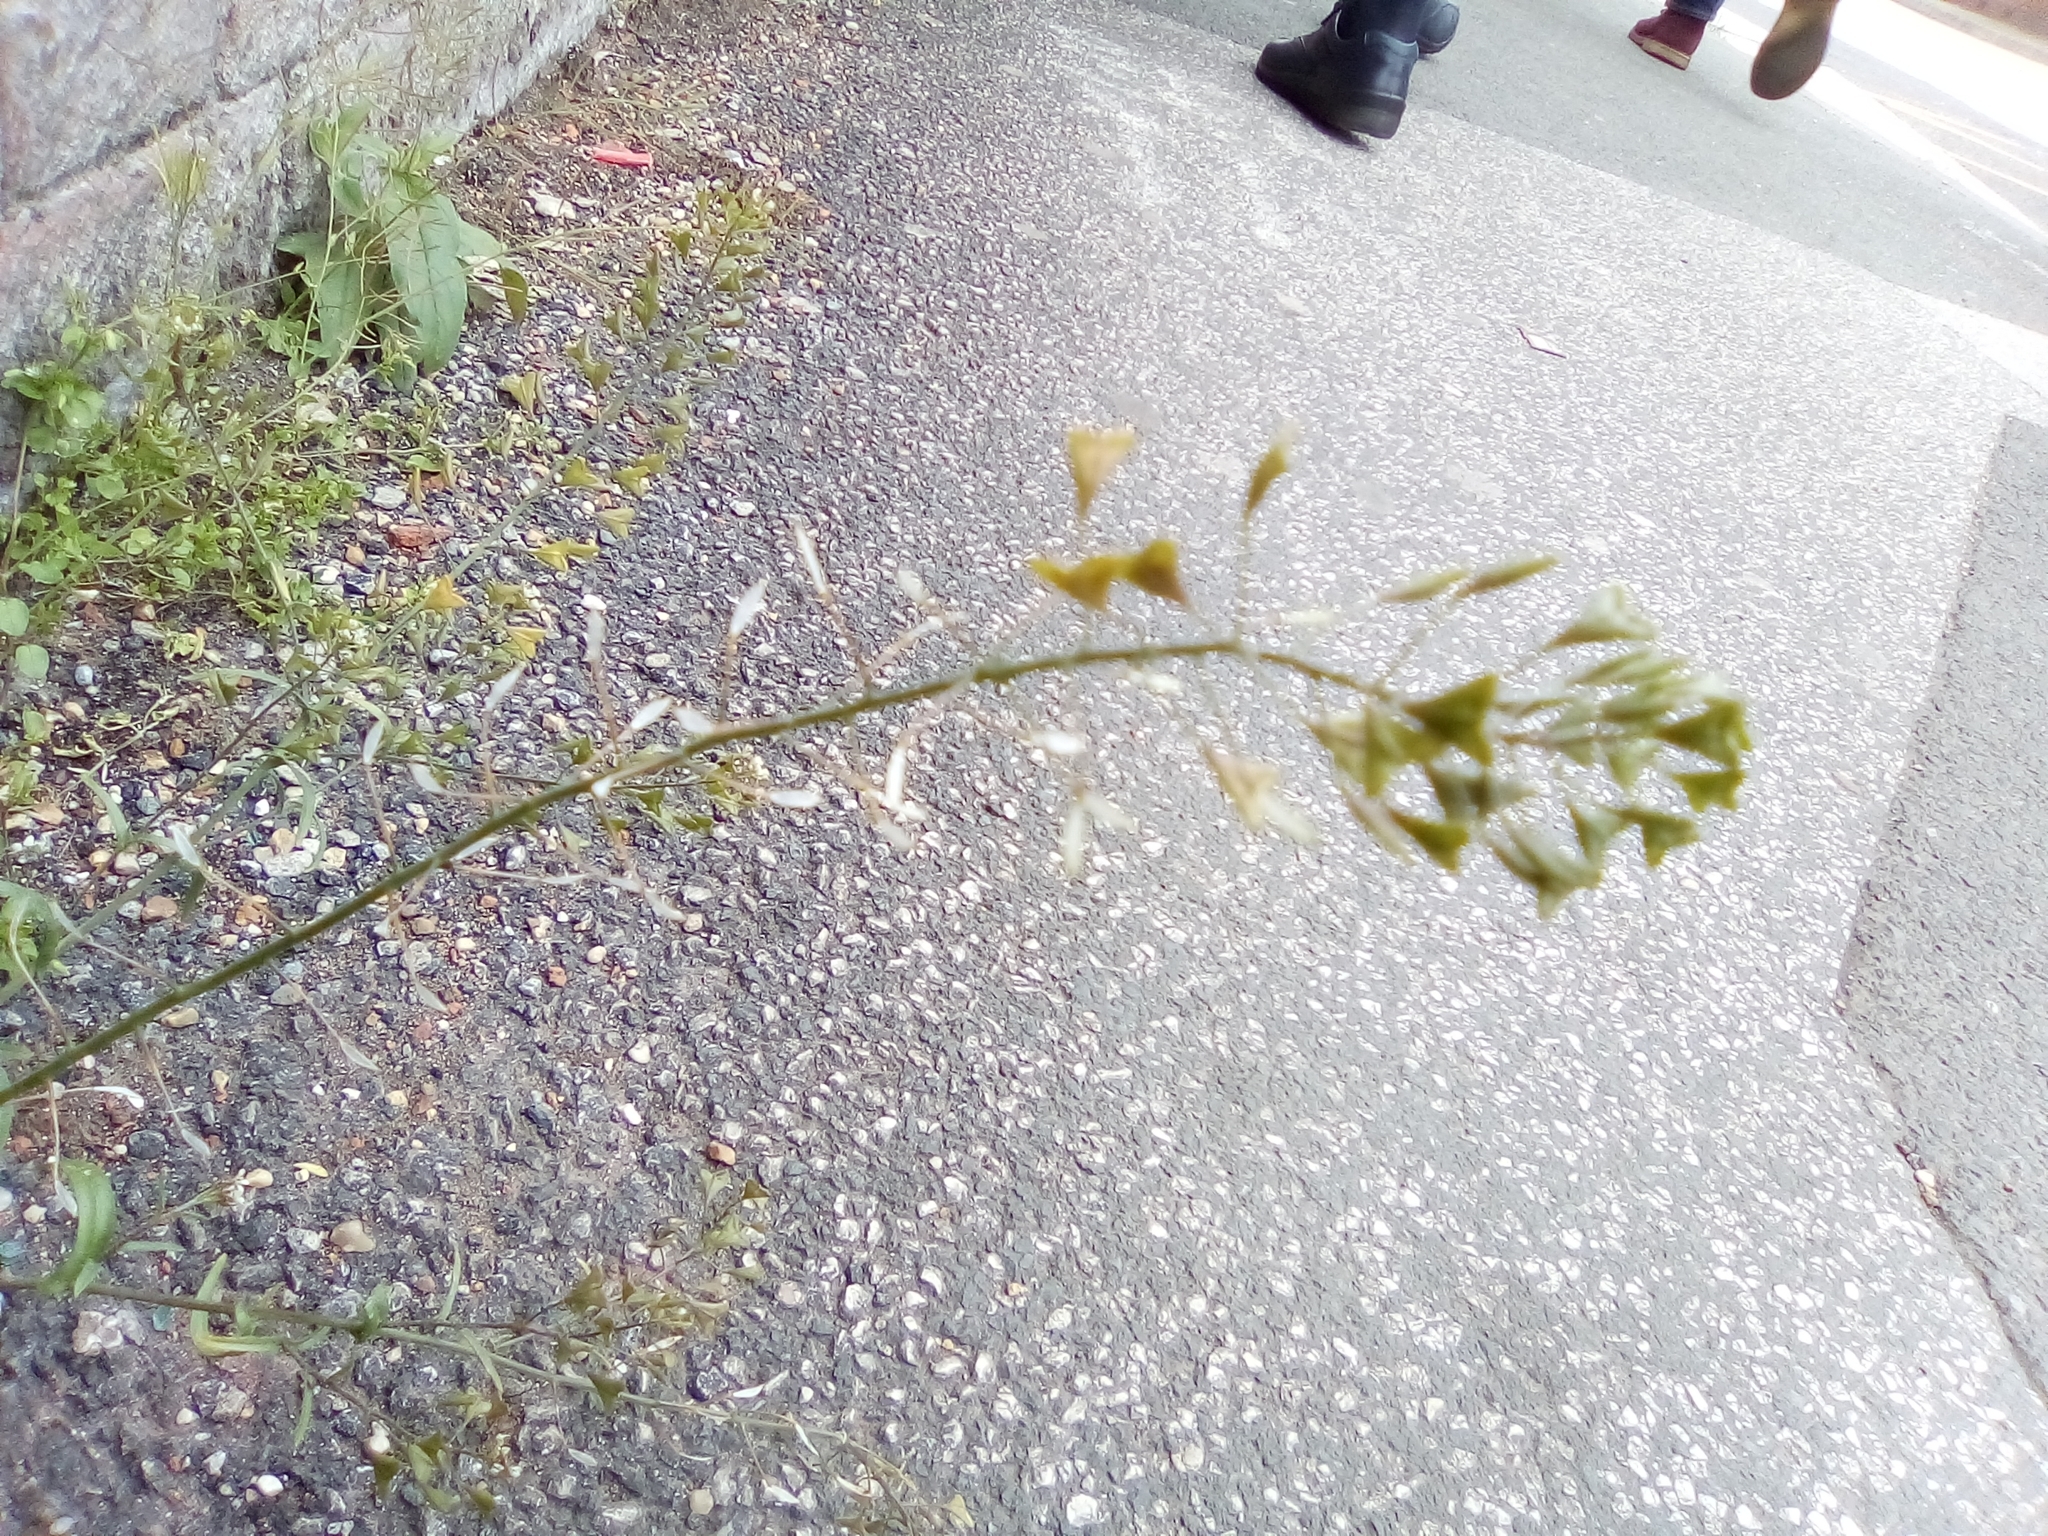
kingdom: Plantae
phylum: Tracheophyta
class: Magnoliopsida
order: Brassicales
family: Brassicaceae
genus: Capsella
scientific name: Capsella bursa-pastoris
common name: Shepherd's purse
